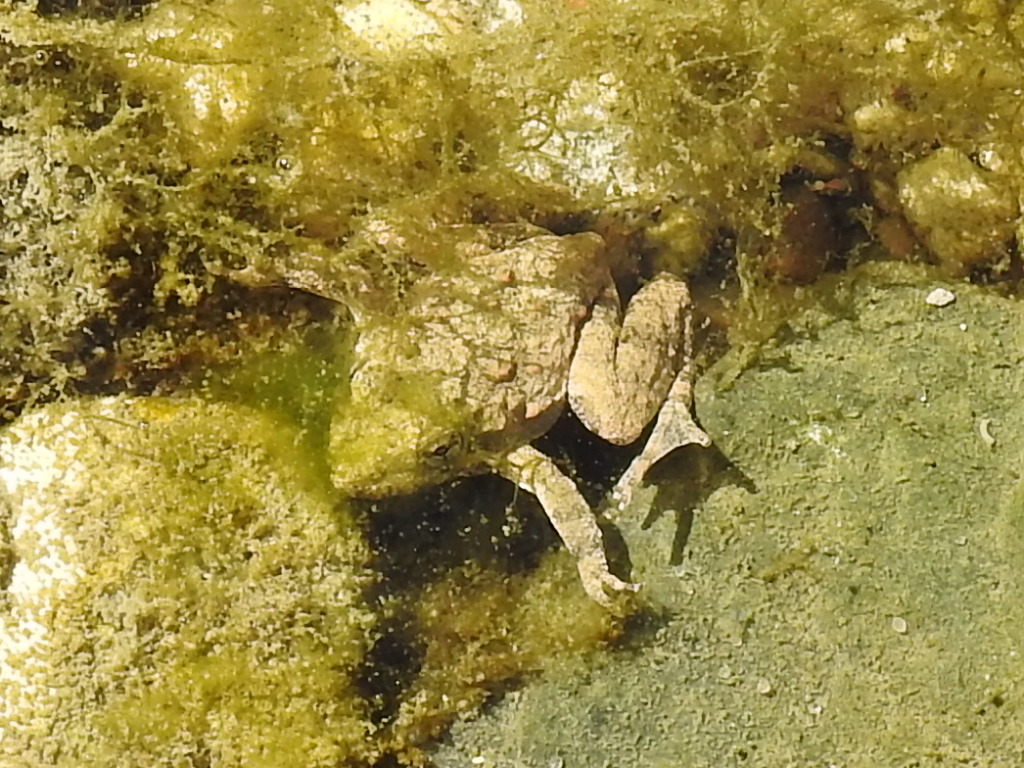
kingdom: Animalia
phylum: Chordata
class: Amphibia
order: Anura
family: Hylidae
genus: Acris
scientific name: Acris blanchardi
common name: Blanchard's cricket frog
